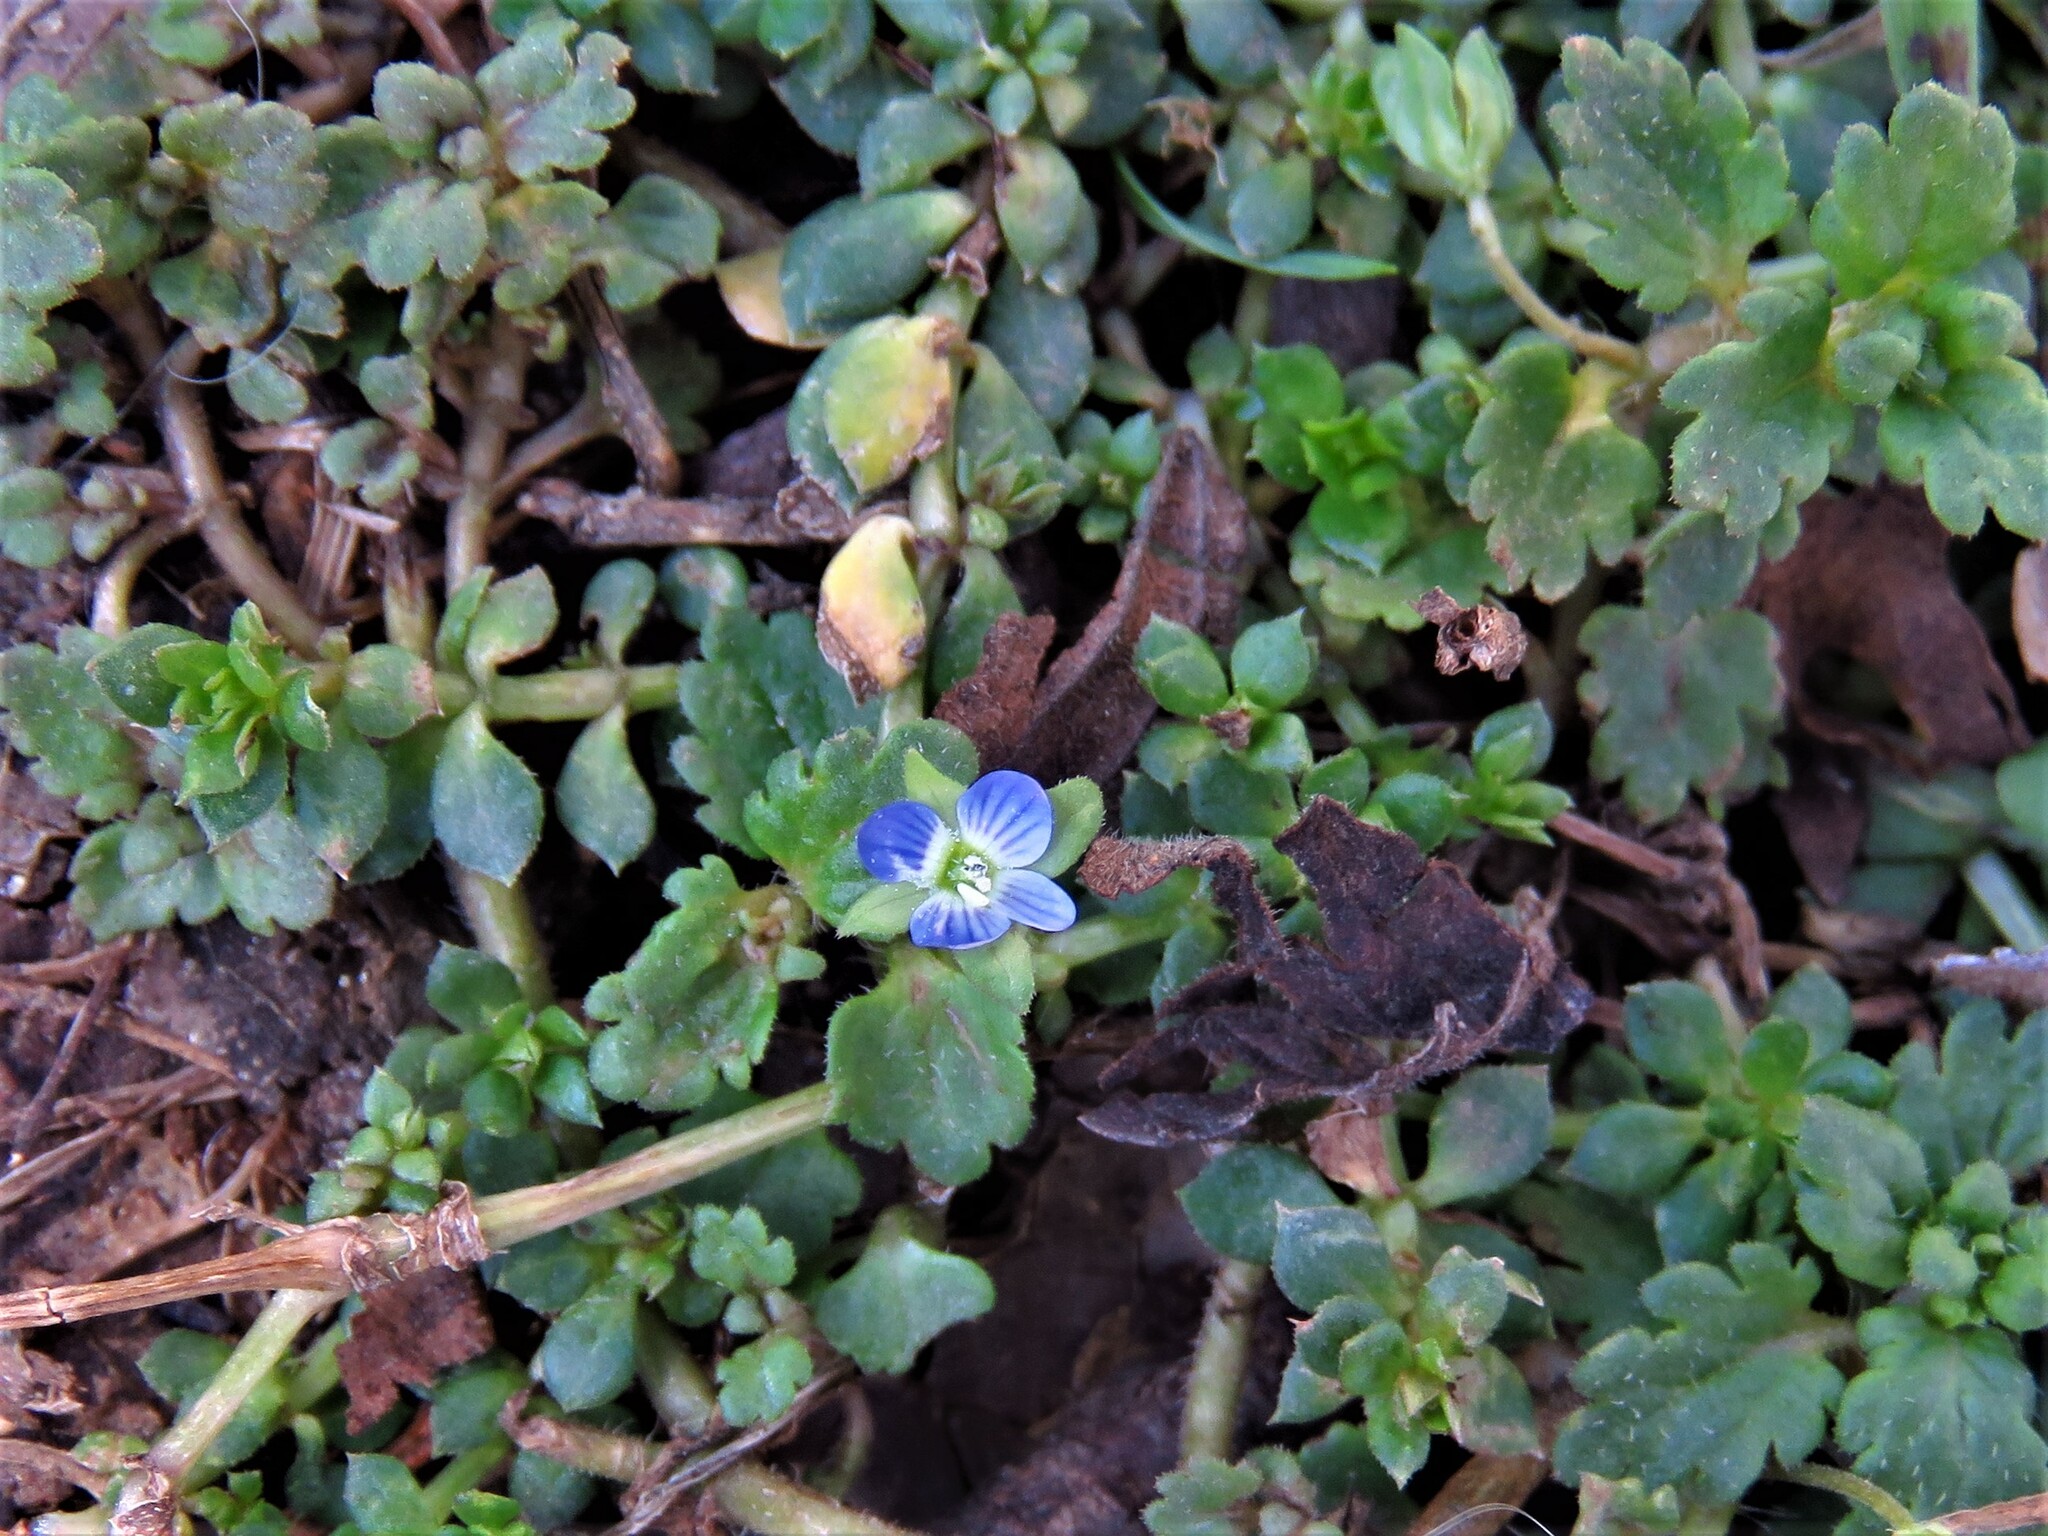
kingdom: Plantae
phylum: Tracheophyta
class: Magnoliopsida
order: Lamiales
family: Plantaginaceae
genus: Veronica
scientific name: Veronica polita
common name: Grey field-speedwell
